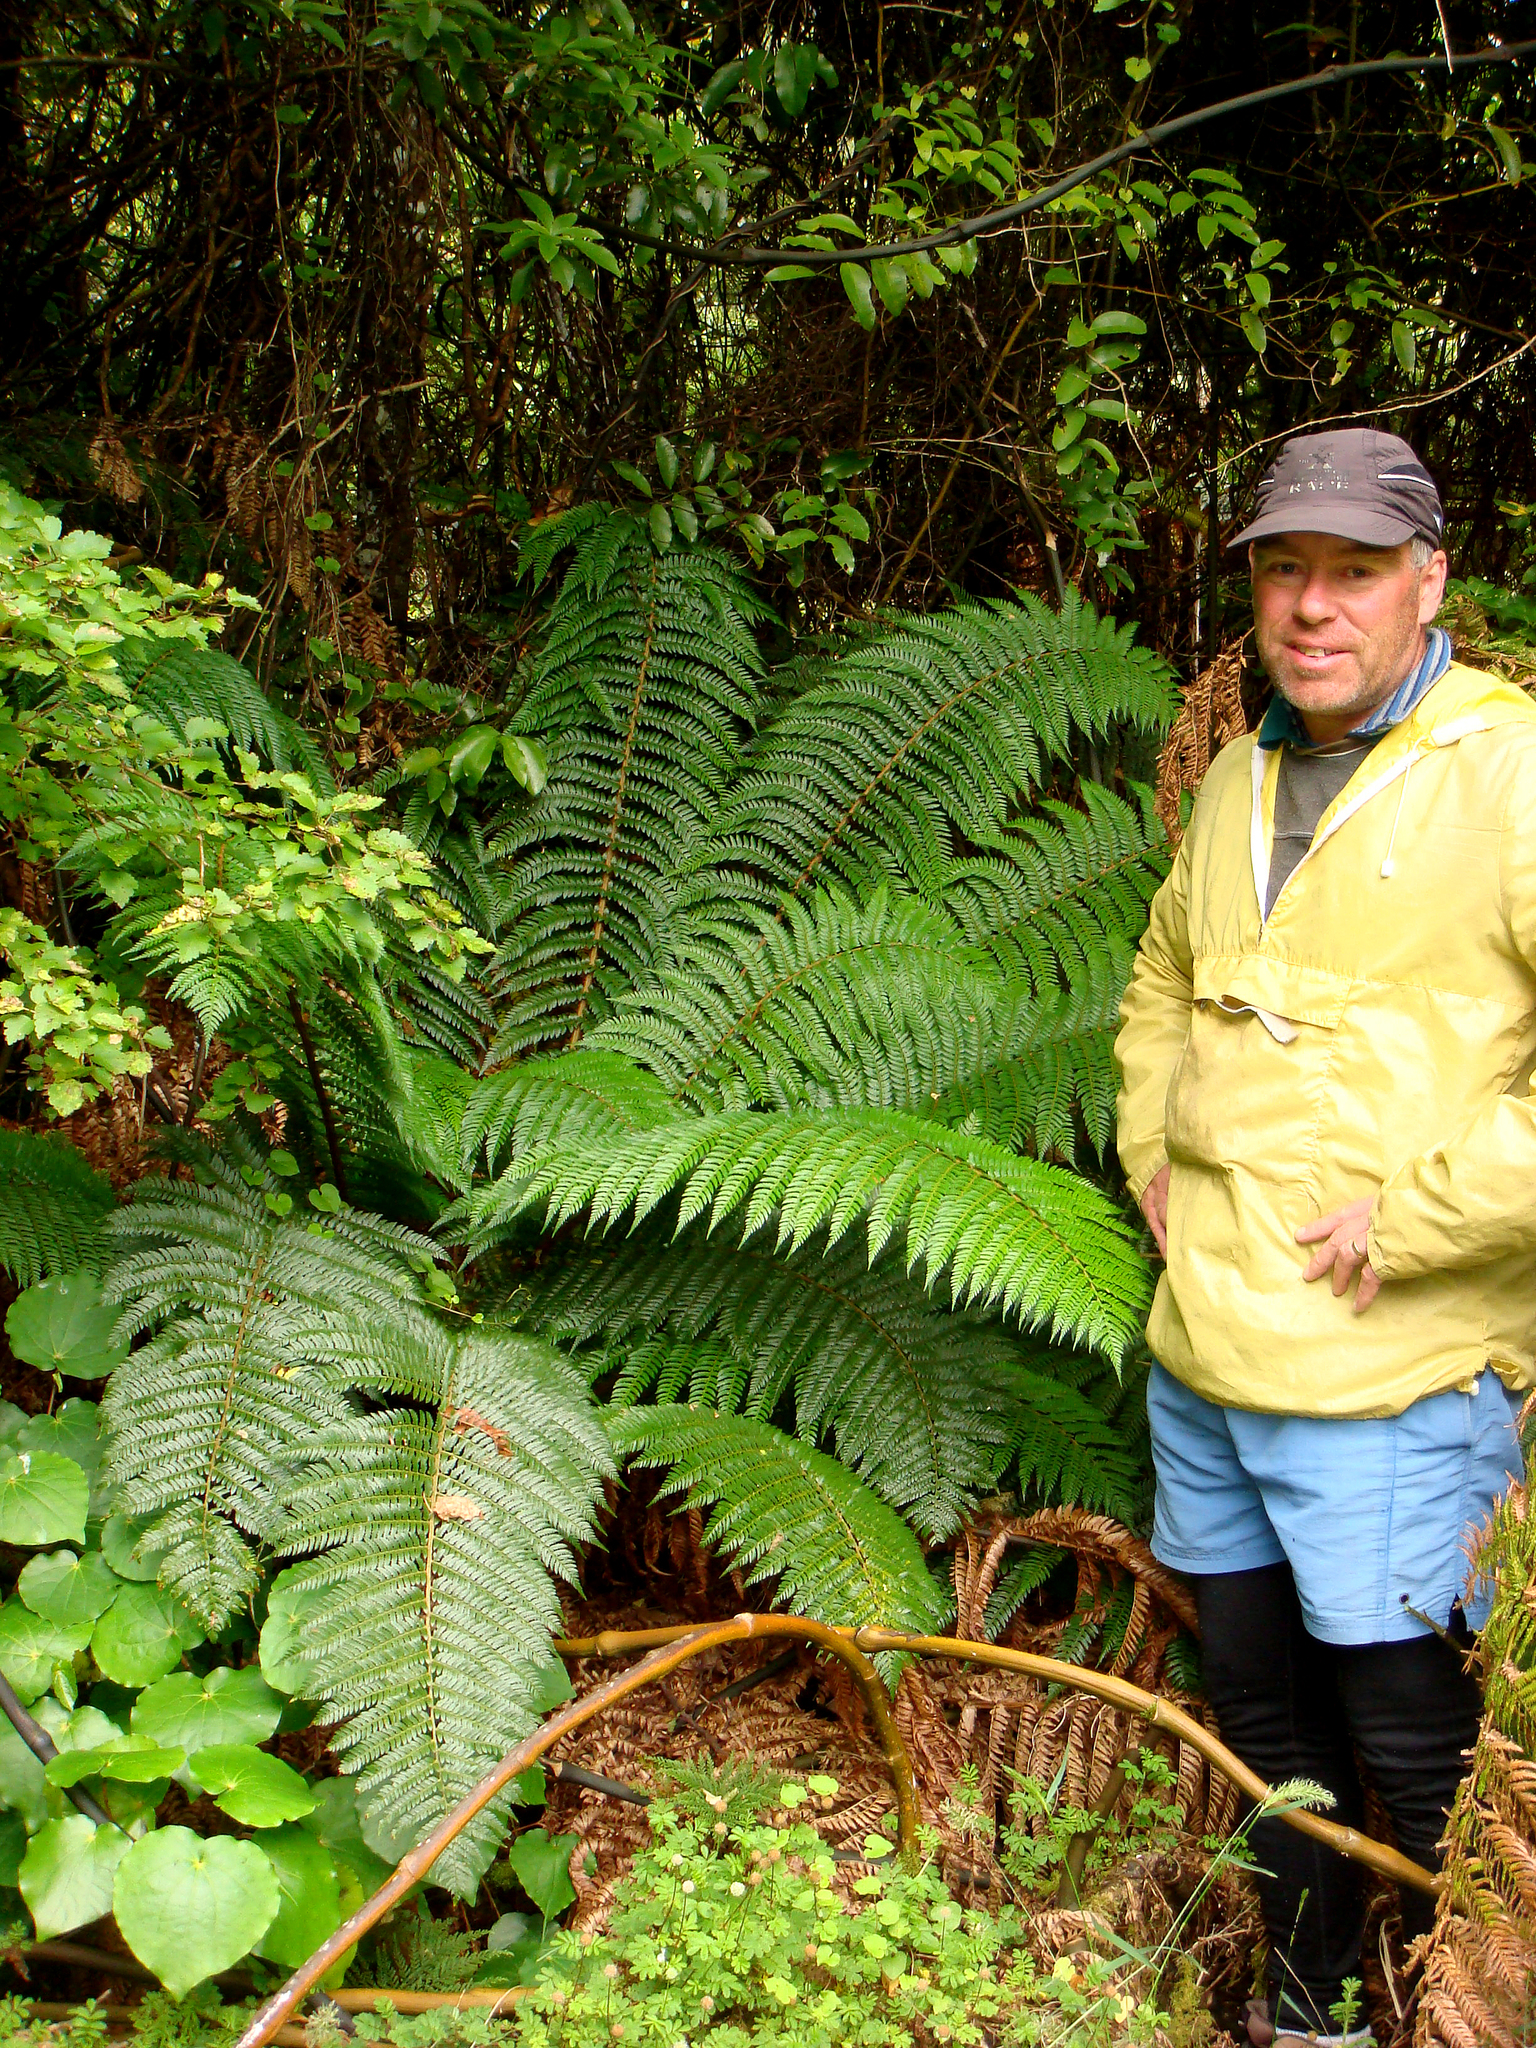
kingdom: Plantae
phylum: Tracheophyta
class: Polypodiopsida
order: Polypodiales
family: Dryopteridaceae
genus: Polystichum
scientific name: Polystichum vestitum
